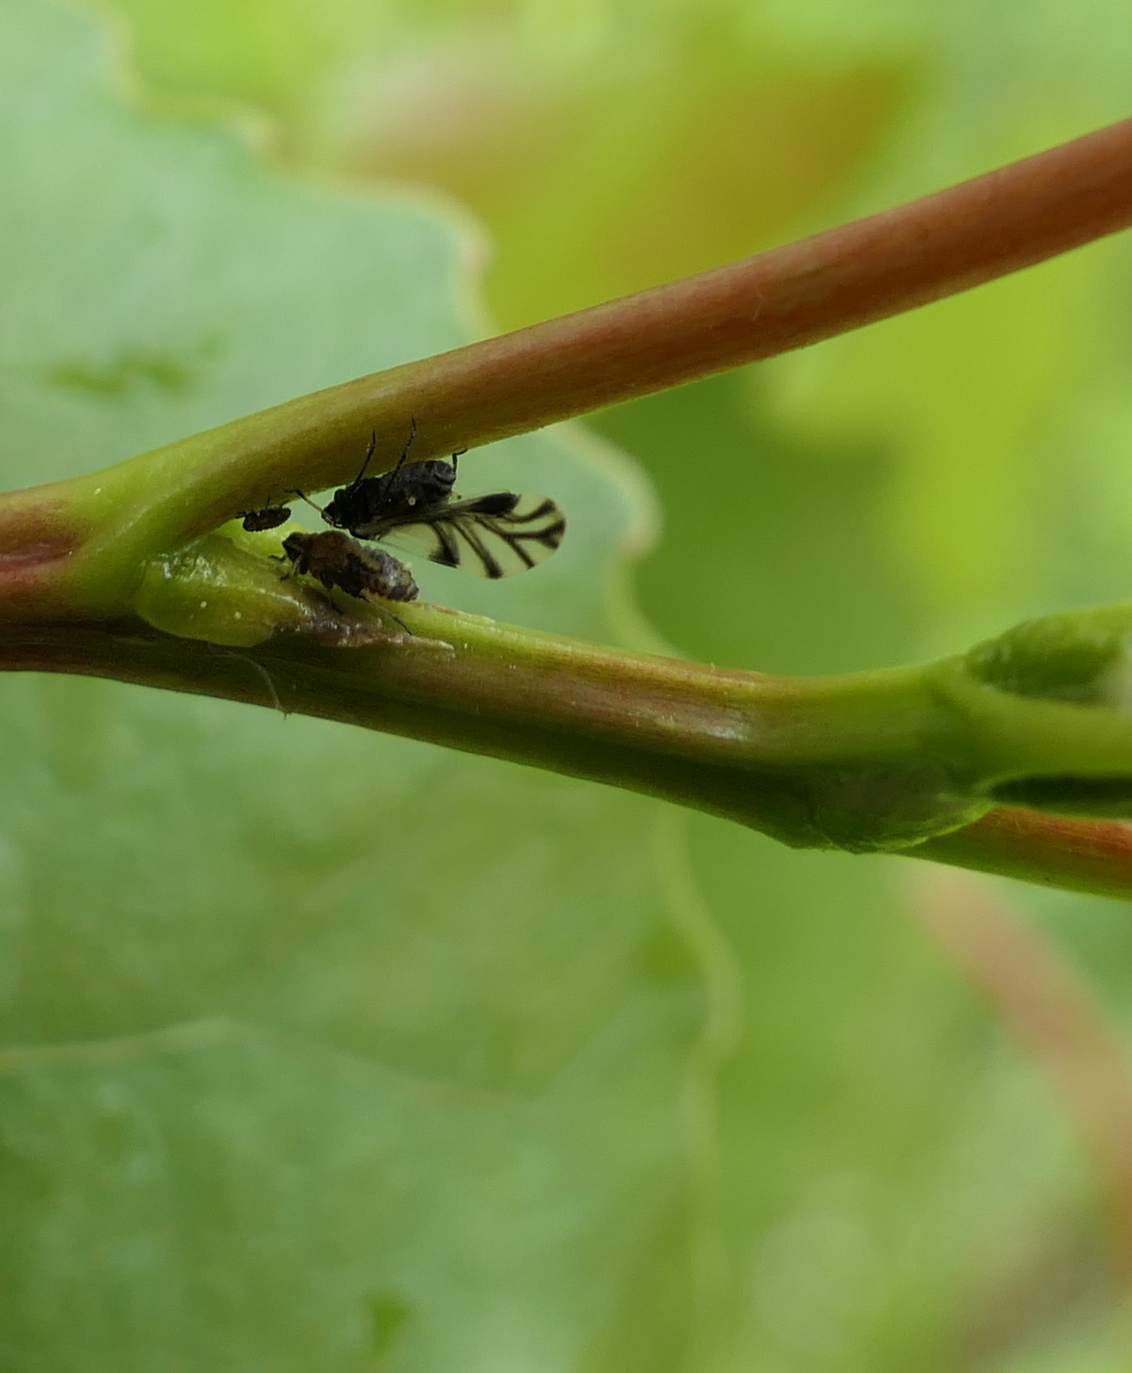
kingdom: Animalia
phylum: Arthropoda
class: Insecta
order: Hemiptera
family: Aphididae
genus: Chaitophorus
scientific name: Chaitophorus populicola
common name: Smokywinged poplar aphid
